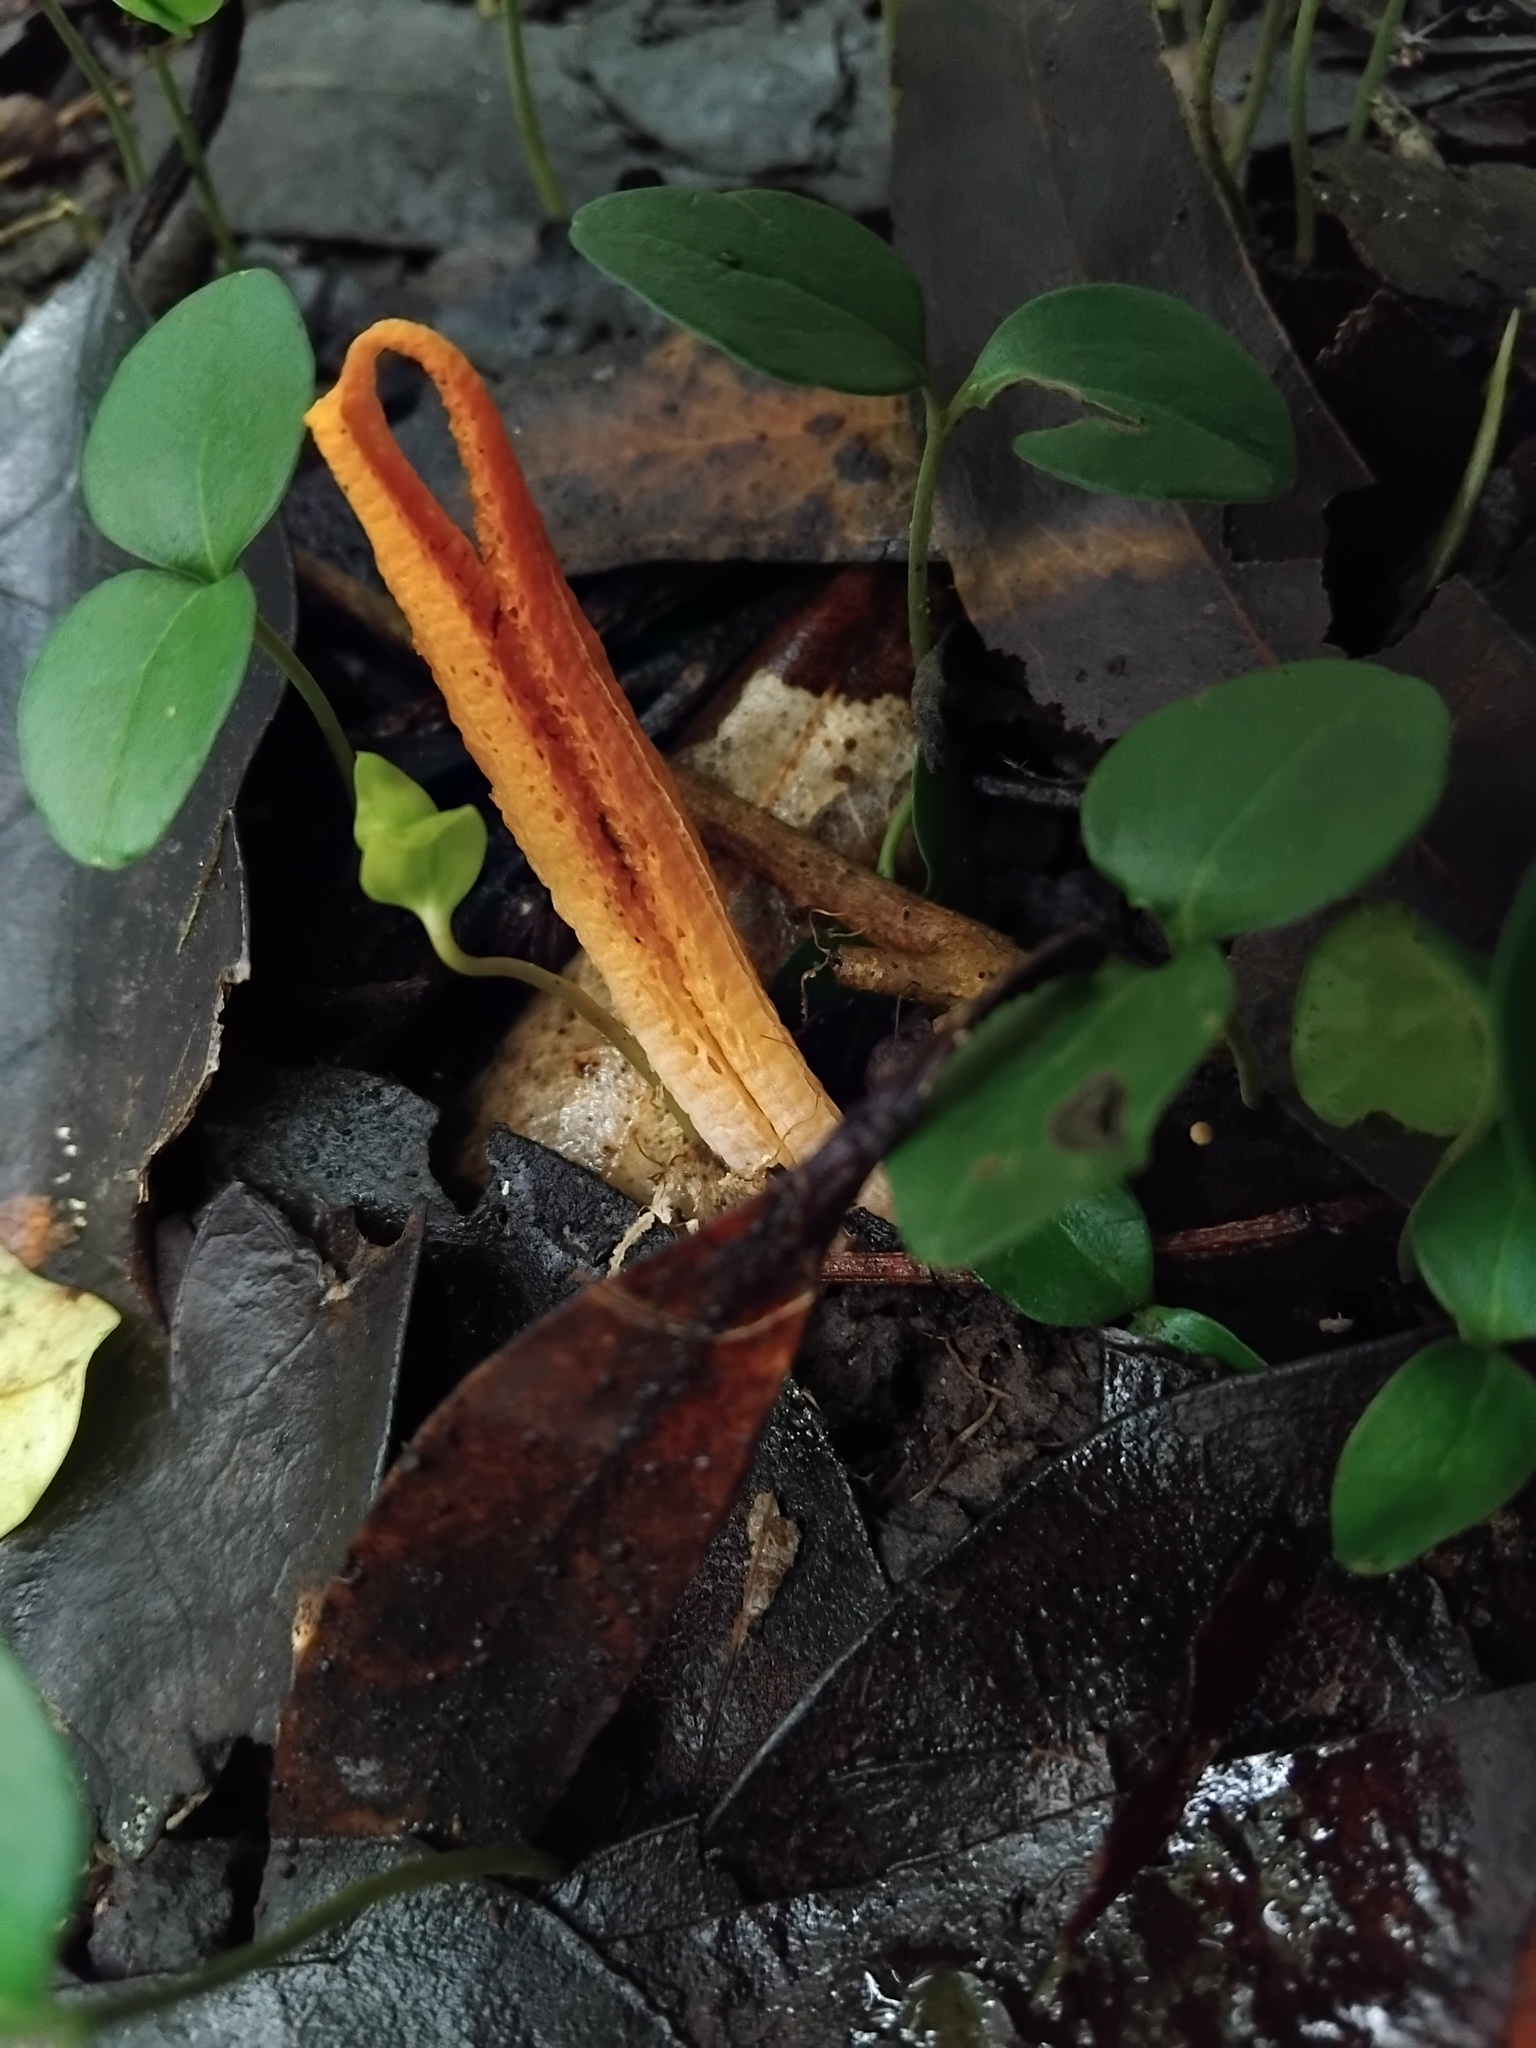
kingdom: Fungi
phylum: Basidiomycota
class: Agaricomycetes
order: Phallales
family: Phallaceae
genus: Pseudocolus
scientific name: Pseudocolus fusiformis
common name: Stinky squid
